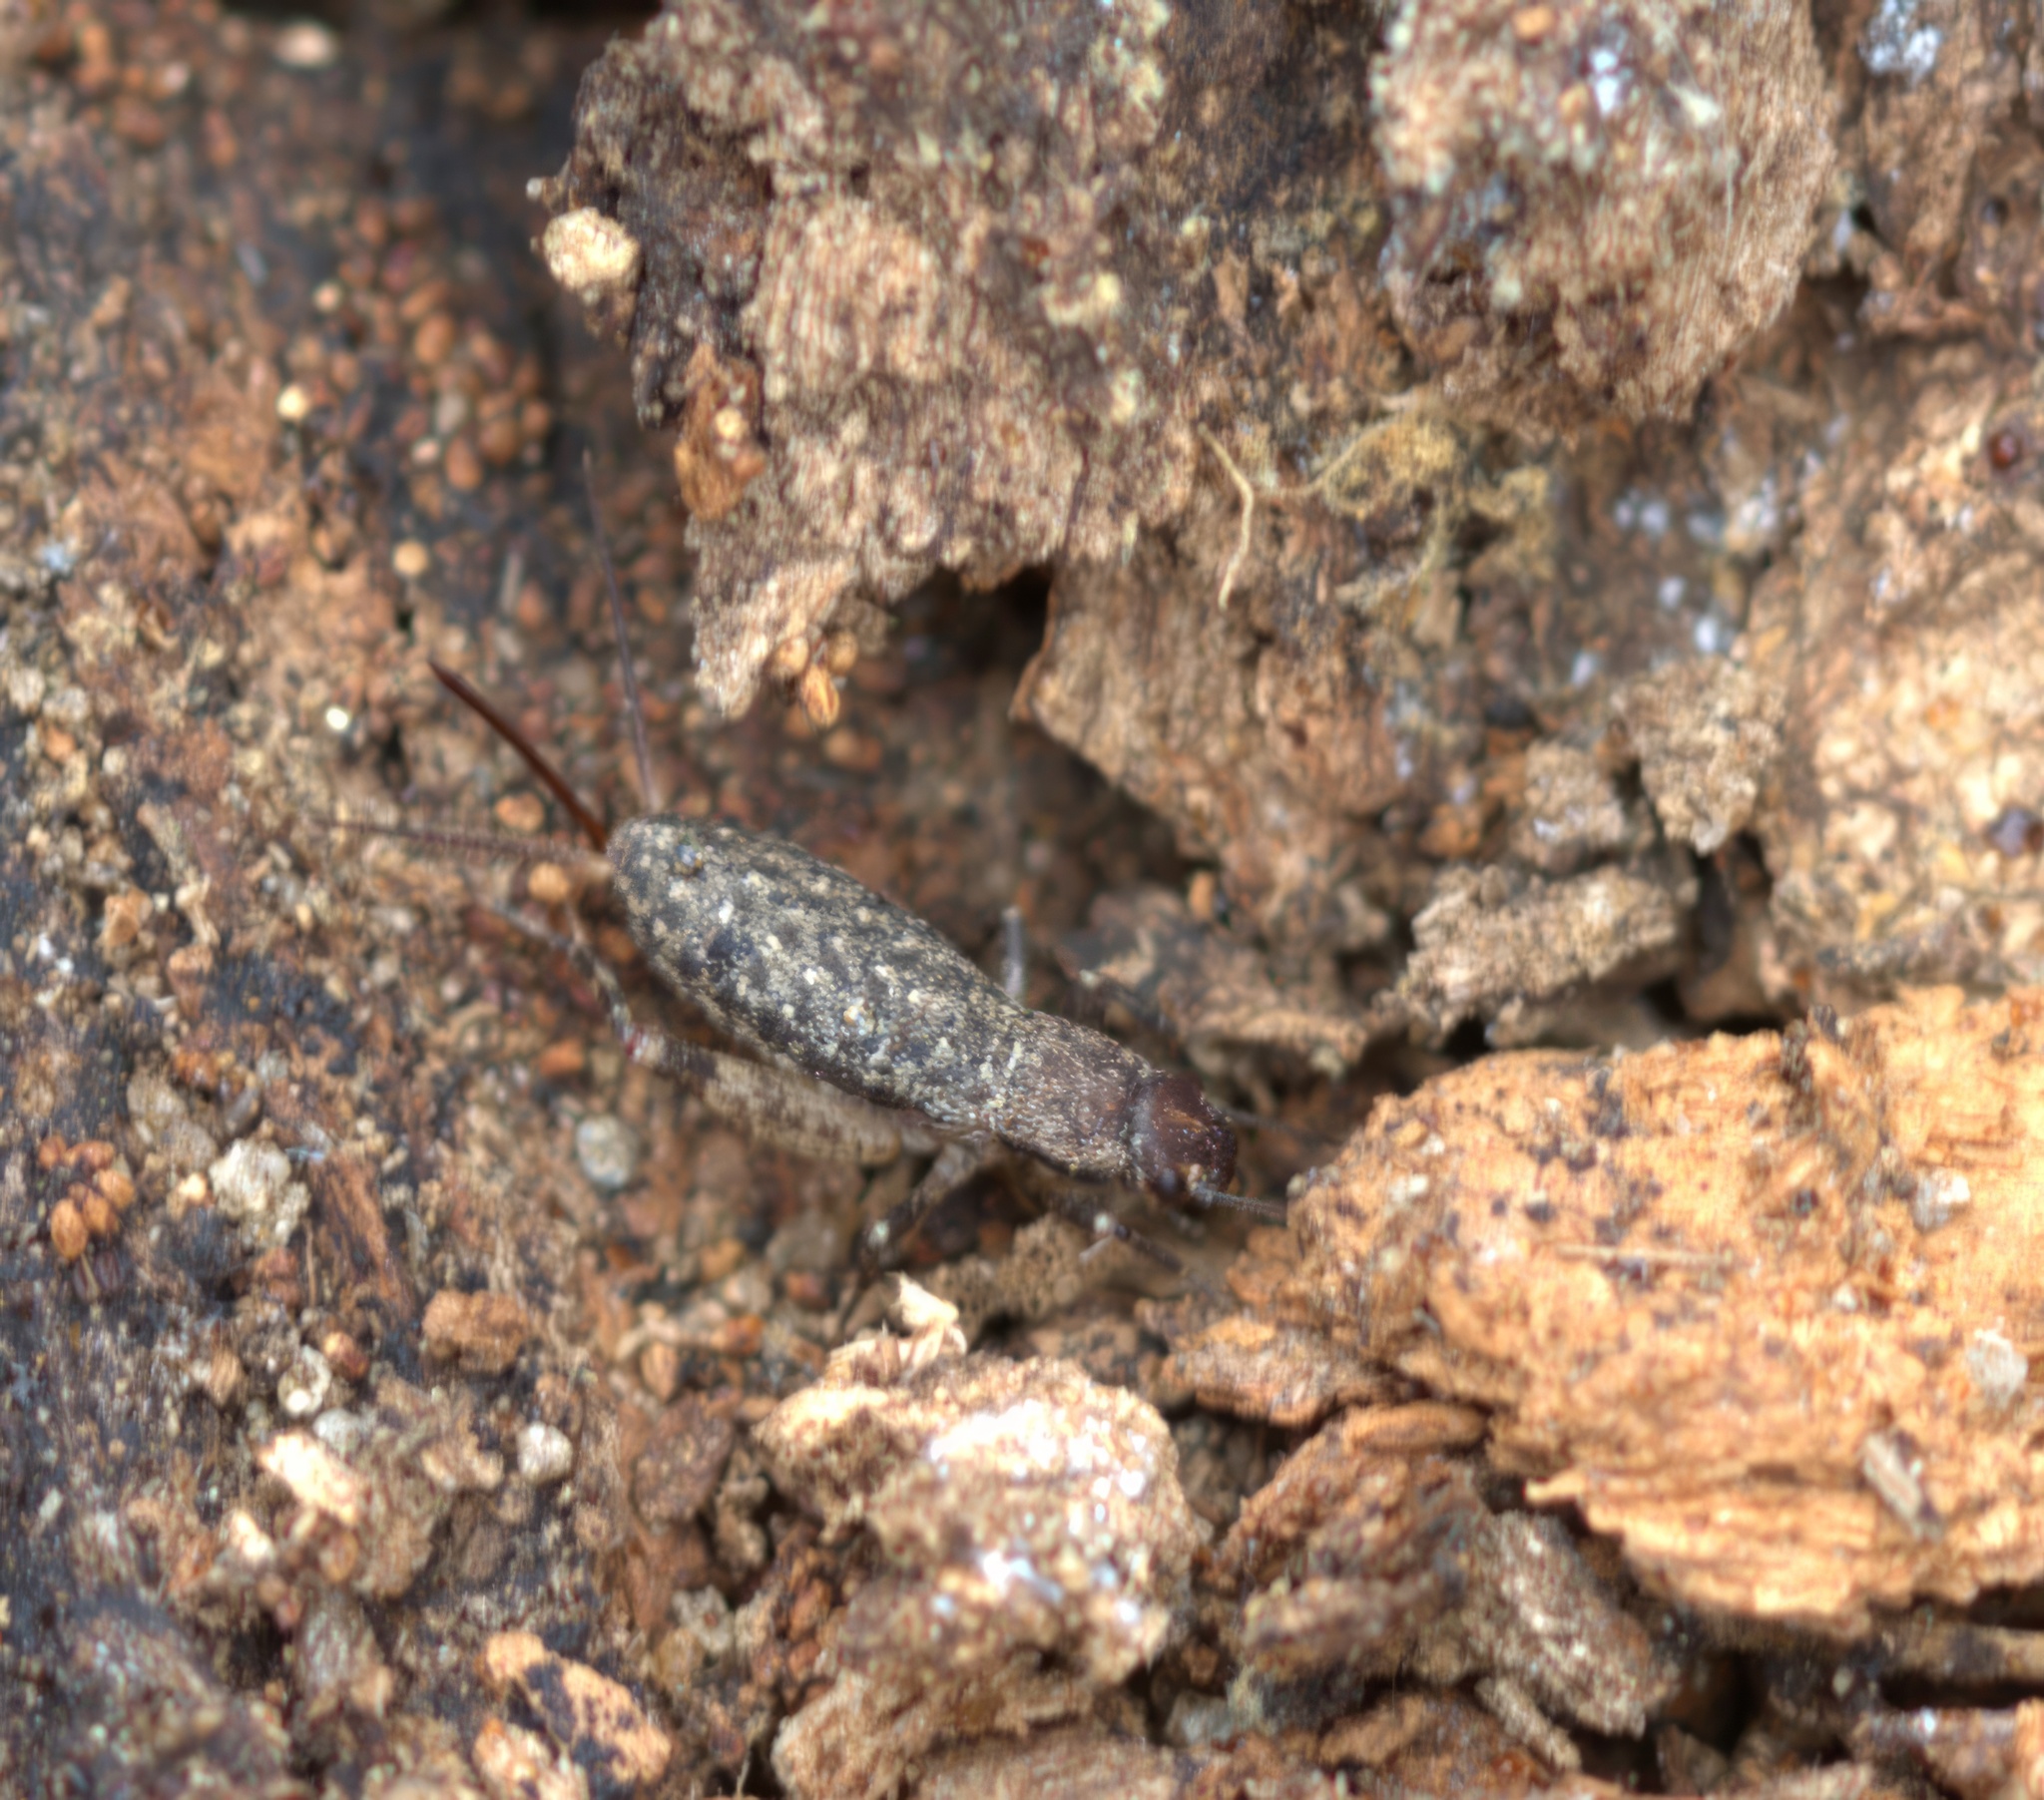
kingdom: Animalia
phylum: Arthropoda
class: Insecta
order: Orthoptera
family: Mogoplistidae
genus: Hoplosphyrum
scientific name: Hoplosphyrum boreale
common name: Long-winged scaly cricket
